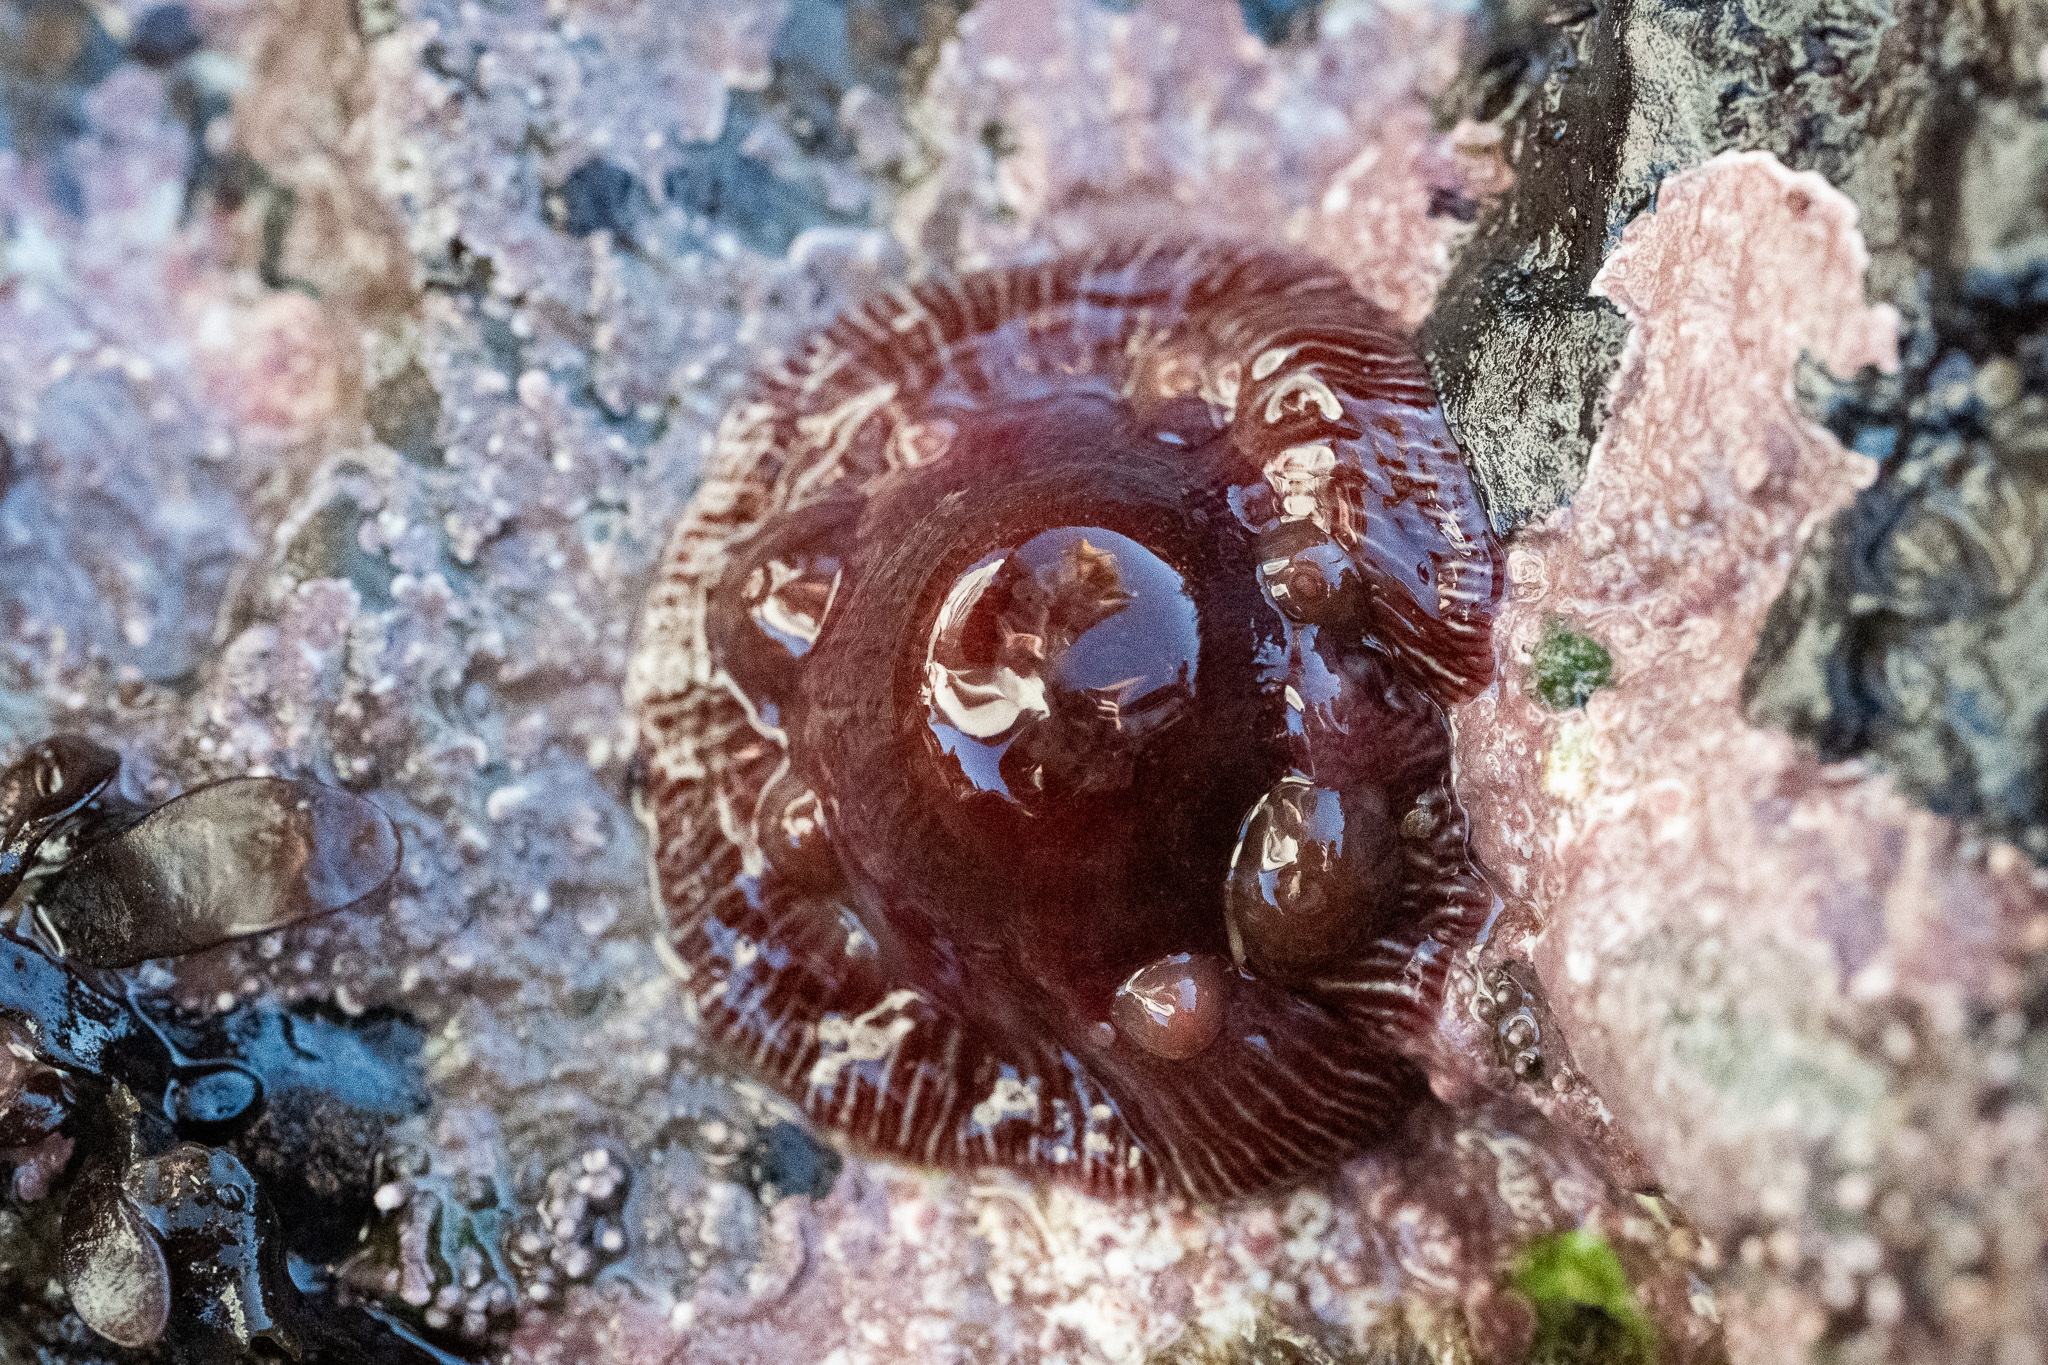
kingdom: Animalia
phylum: Cnidaria
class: Anthozoa
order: Actiniaria
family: Actiniidae
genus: Epiactis
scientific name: Epiactis prolifera
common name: Brooding anemone
